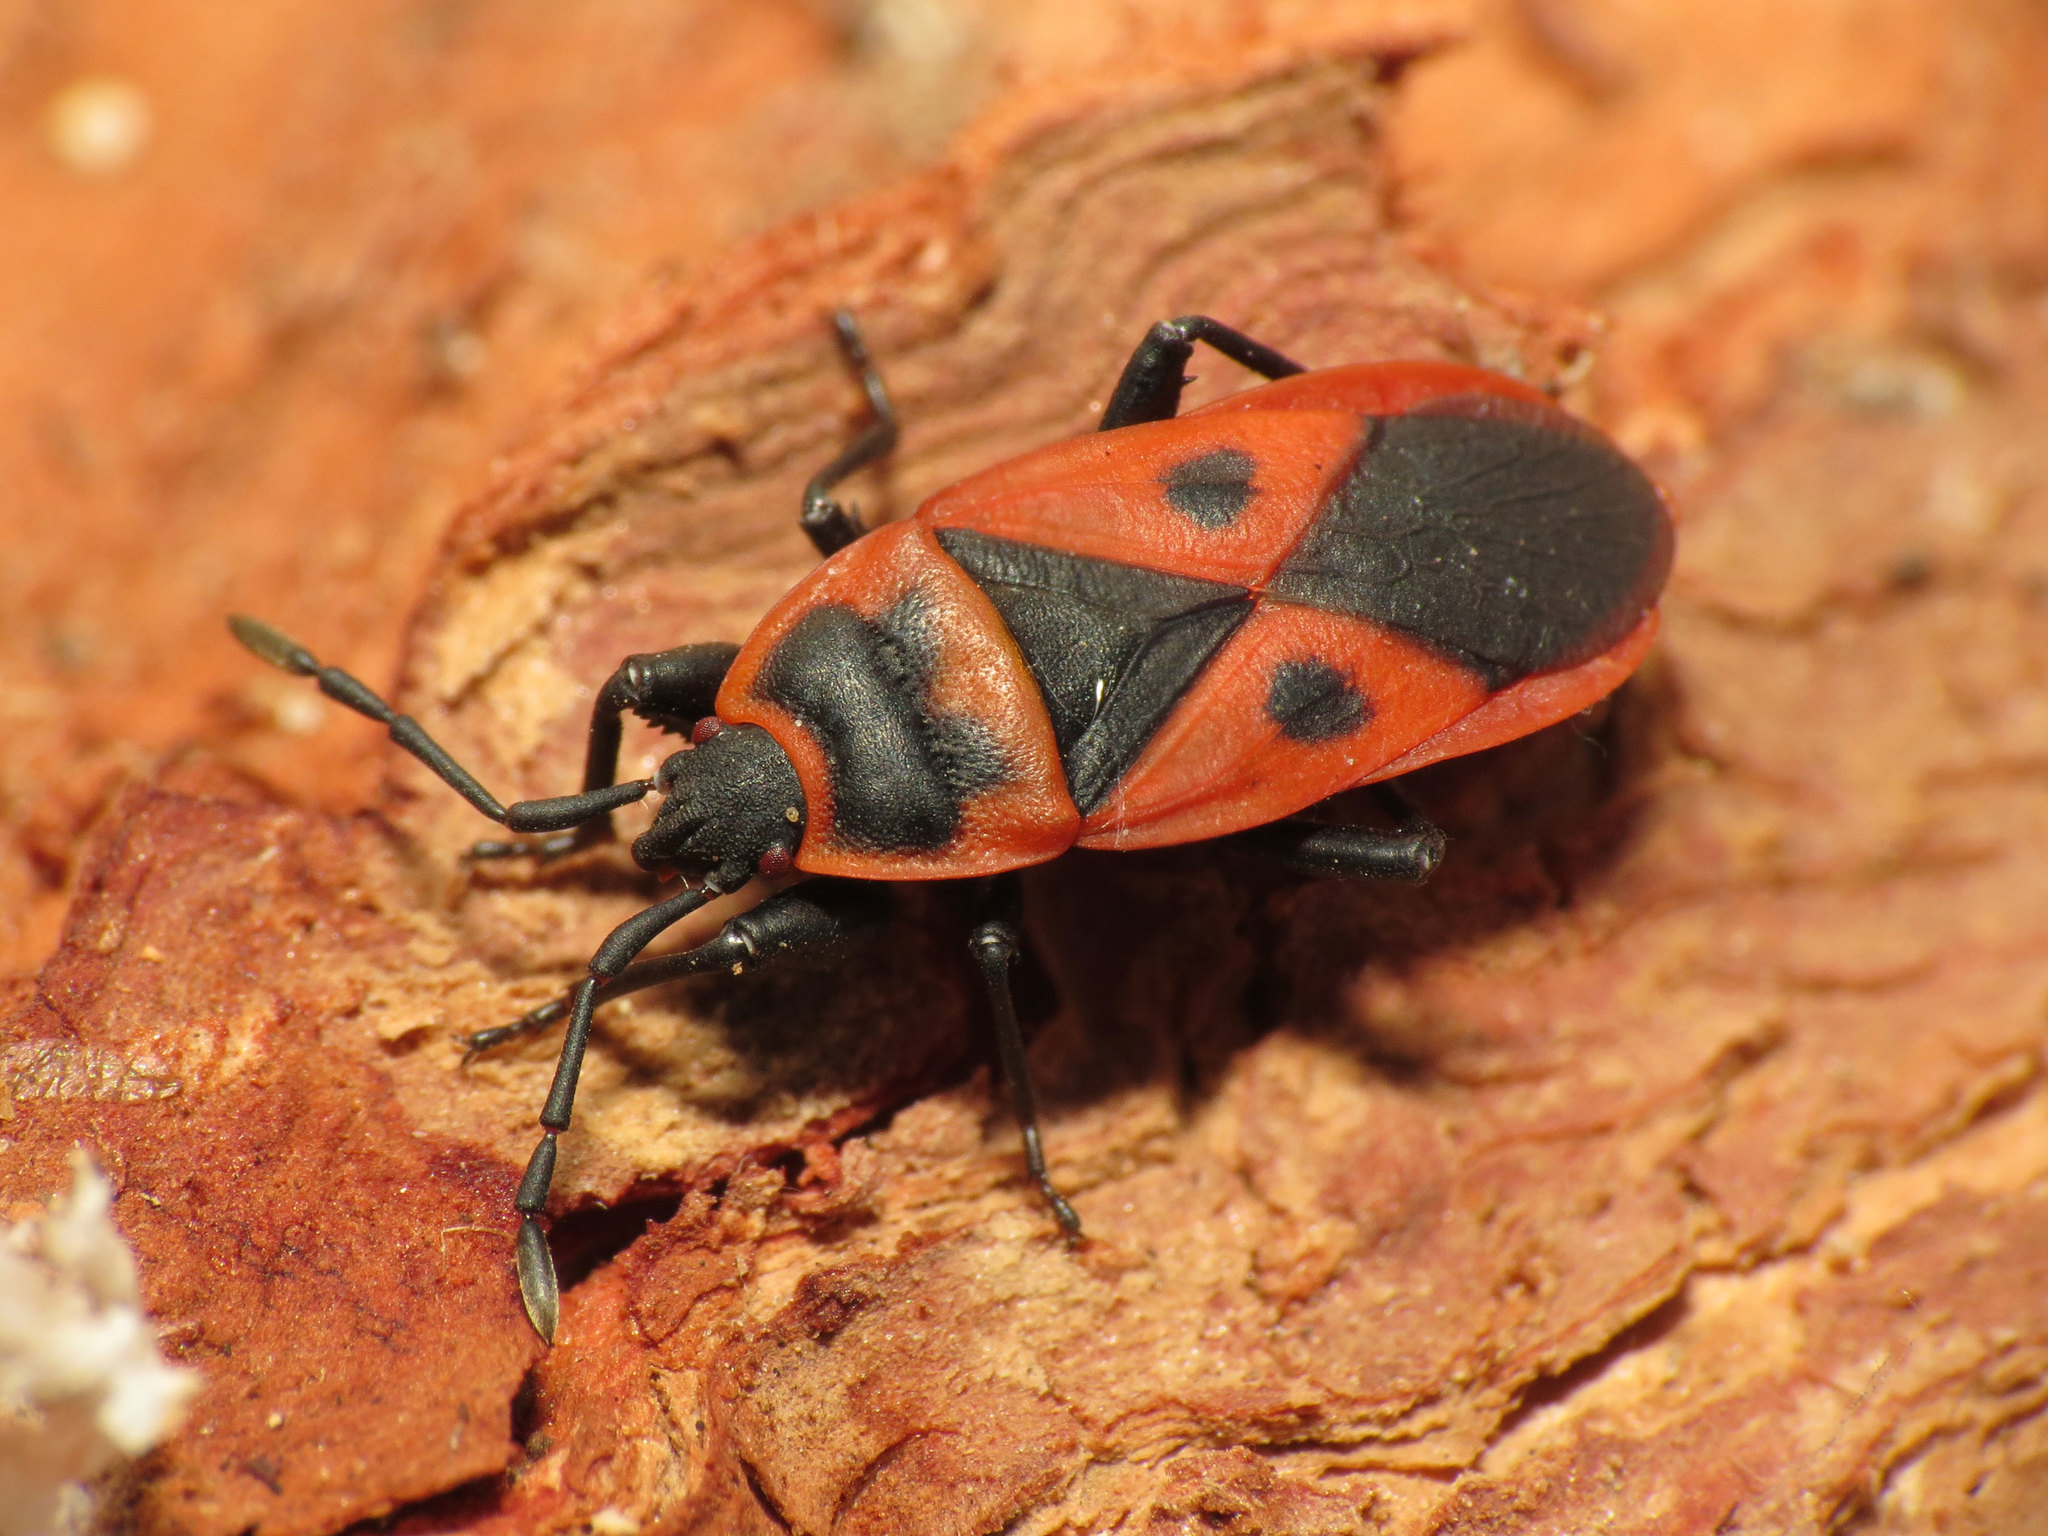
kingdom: Animalia
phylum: Arthropoda
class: Insecta
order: Hemiptera
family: Pyrrhocoridae
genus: Scantius
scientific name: Scantius aegyptius
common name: Red bug
